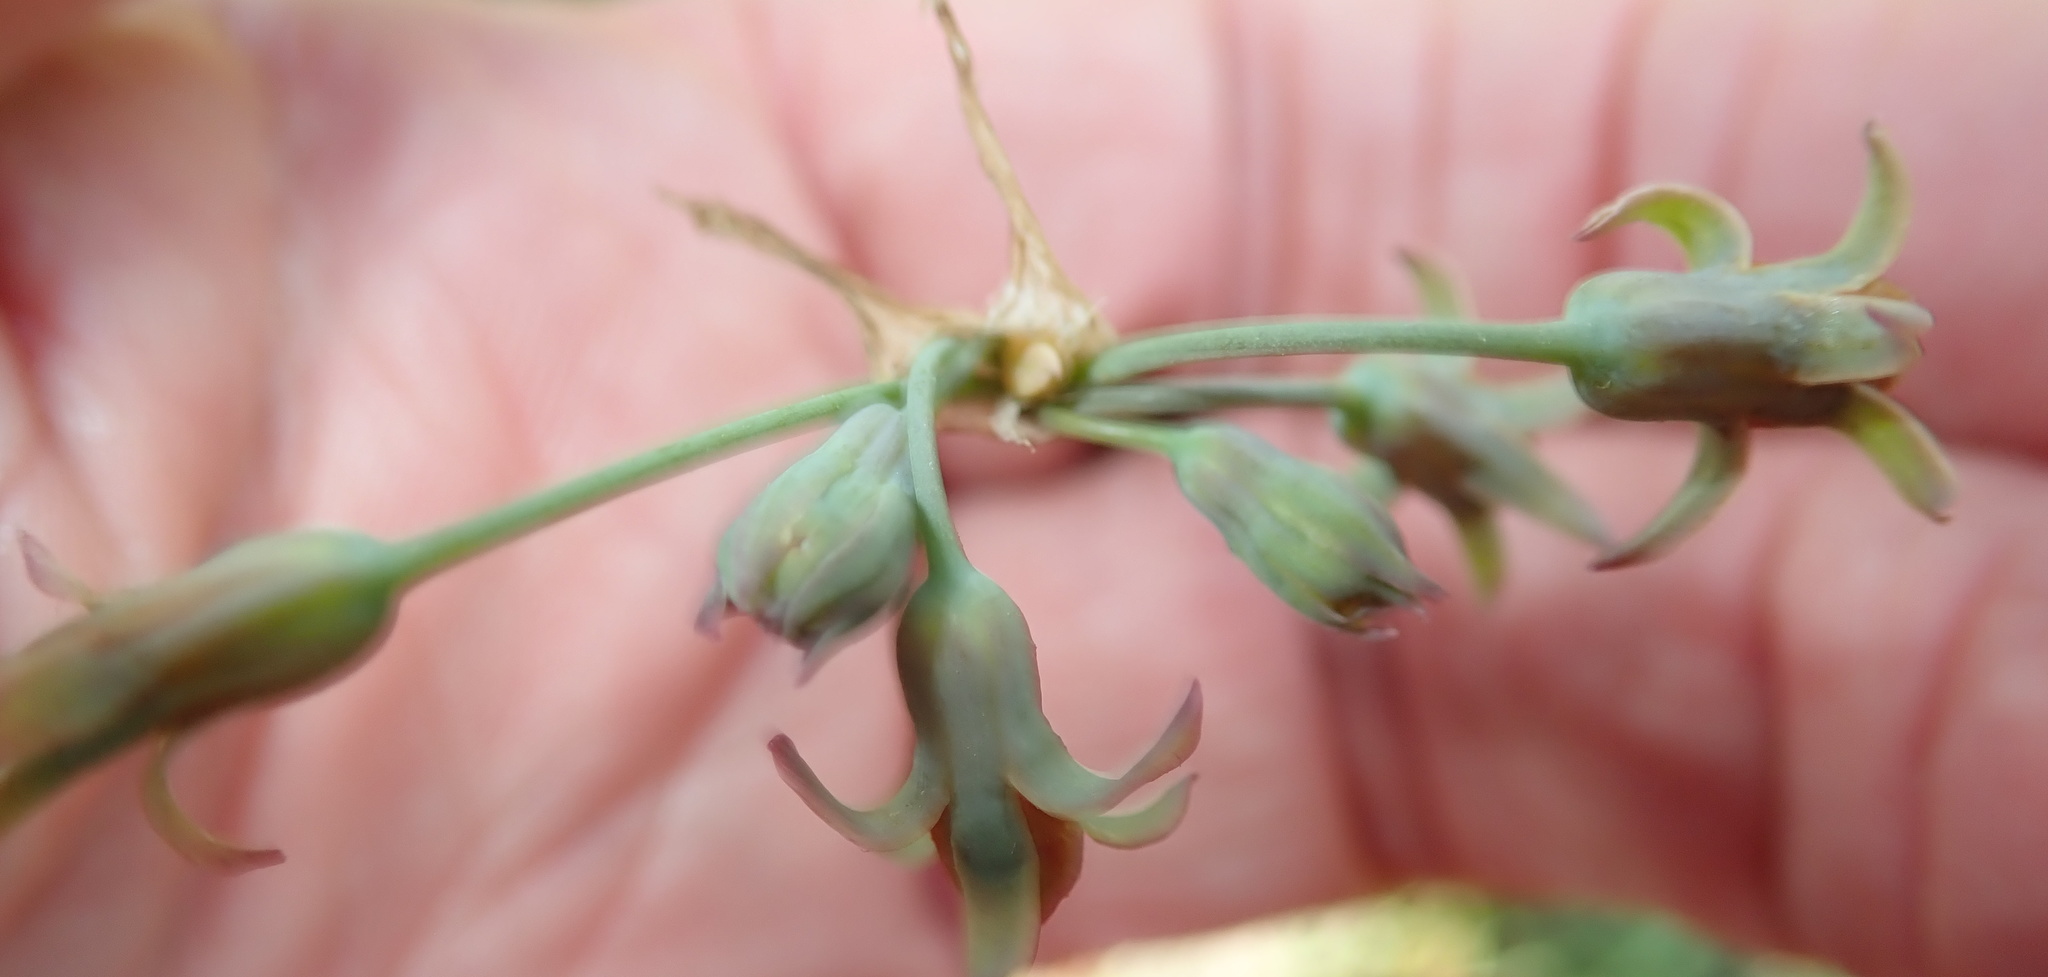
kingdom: Plantae
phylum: Tracheophyta
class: Liliopsida
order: Asparagales
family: Amaryllidaceae
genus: Tulbaghia
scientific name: Tulbaghia acutiloba
